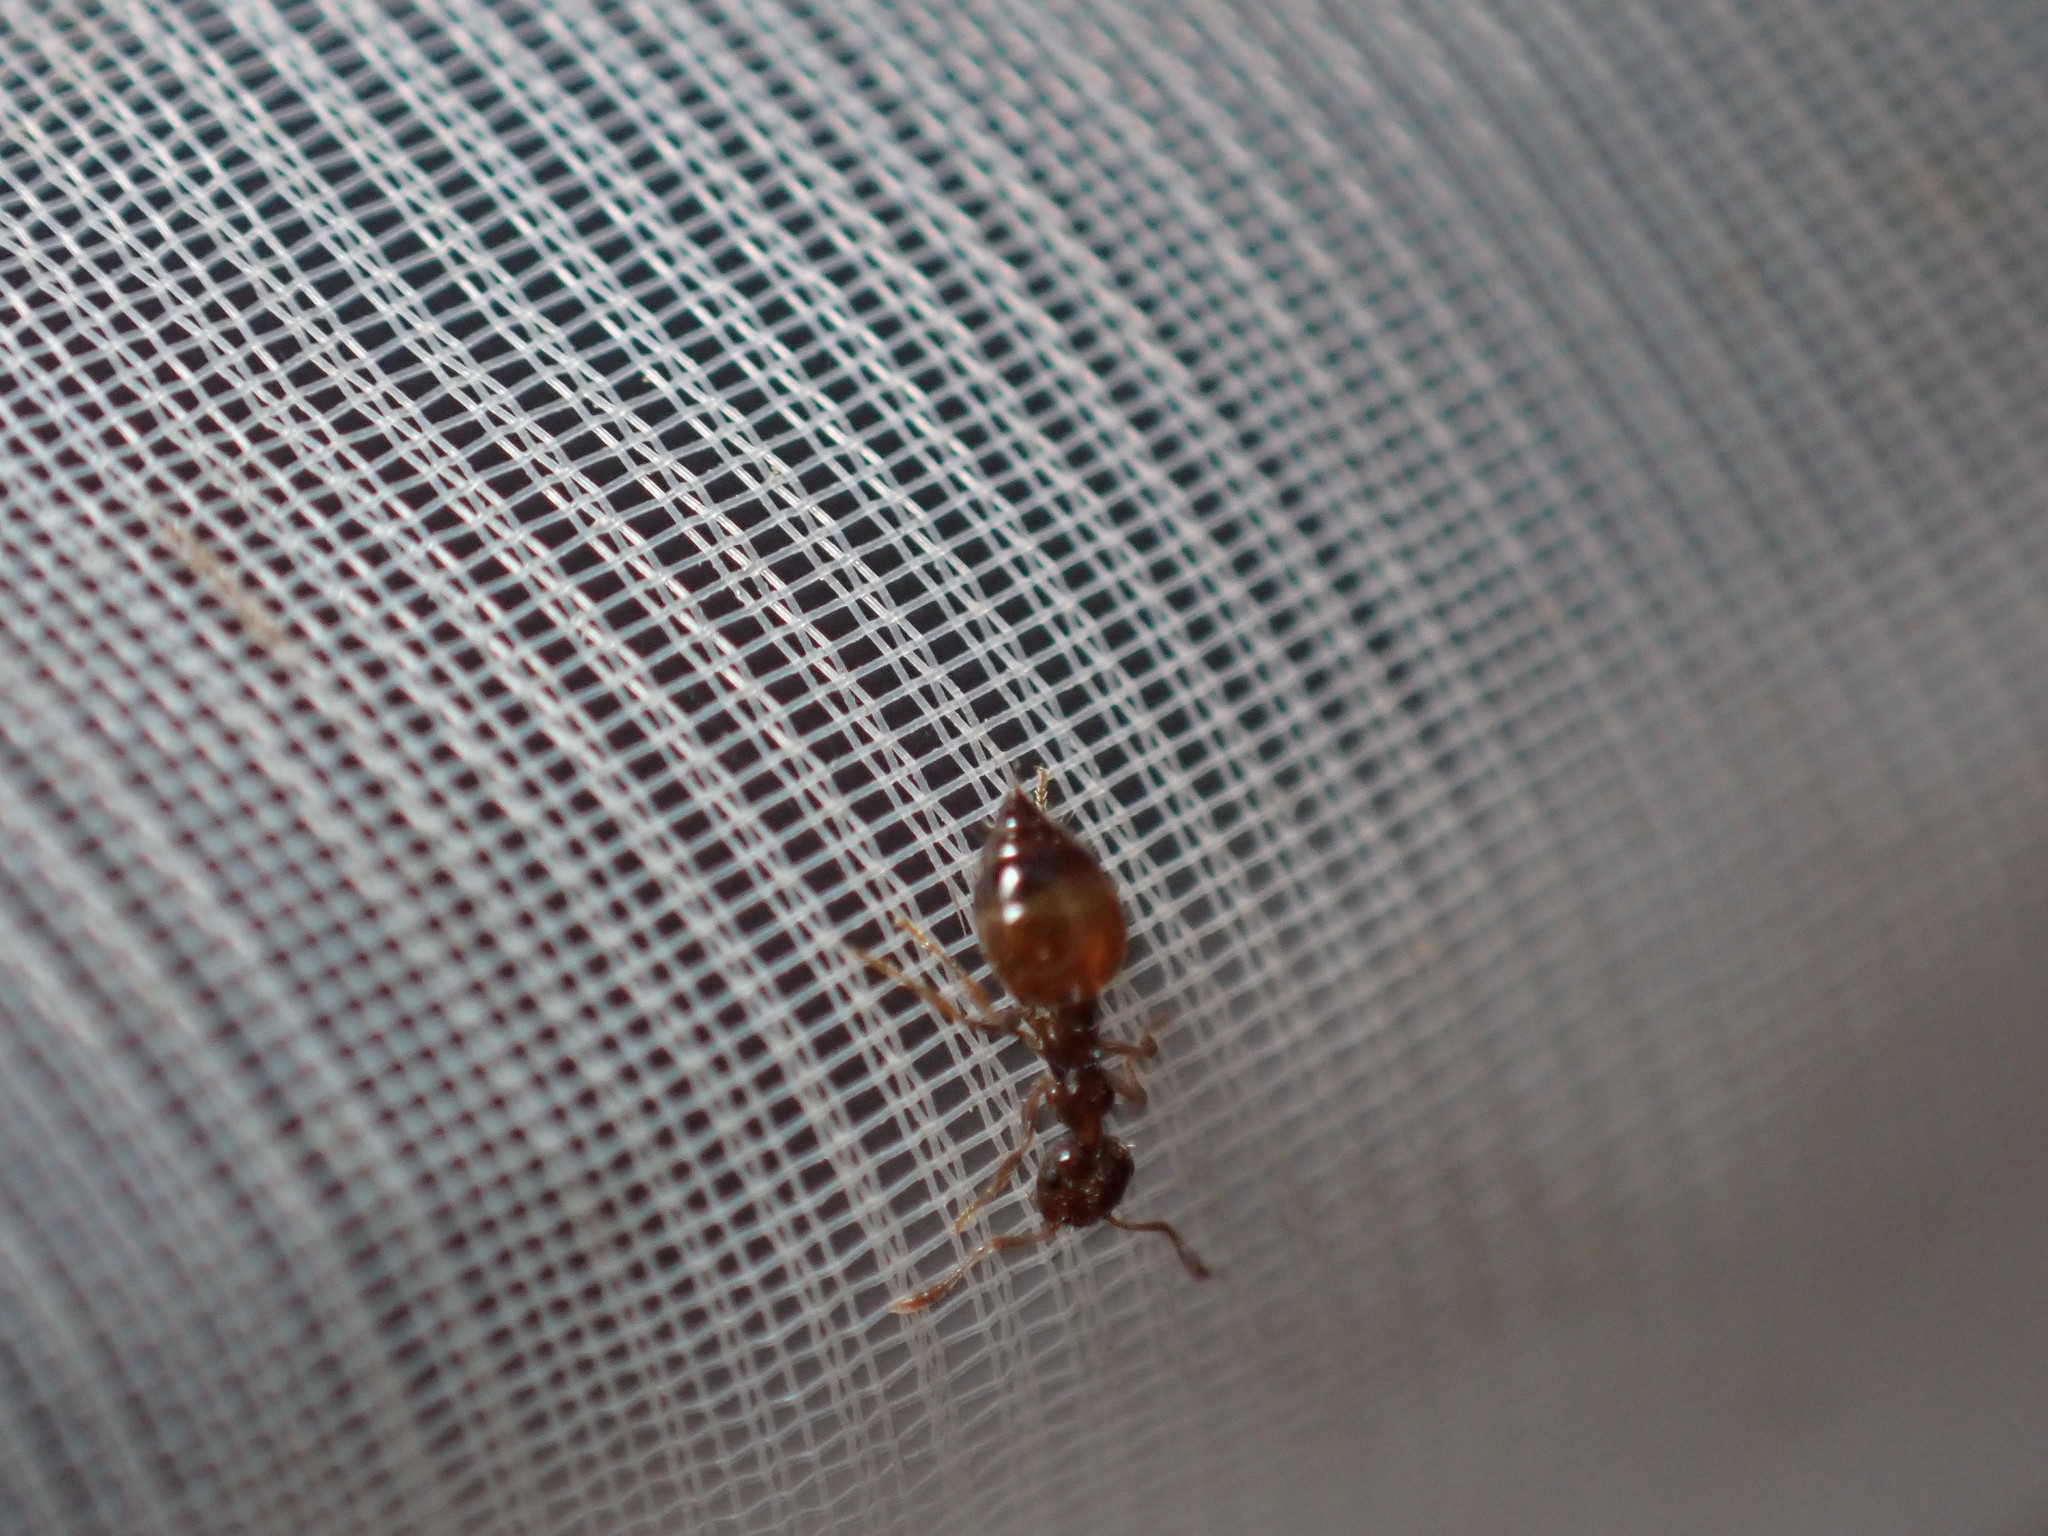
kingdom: Animalia
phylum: Arthropoda
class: Insecta
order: Hymenoptera
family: Formicidae
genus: Crematogaster
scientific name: Crematogaster sordidula
